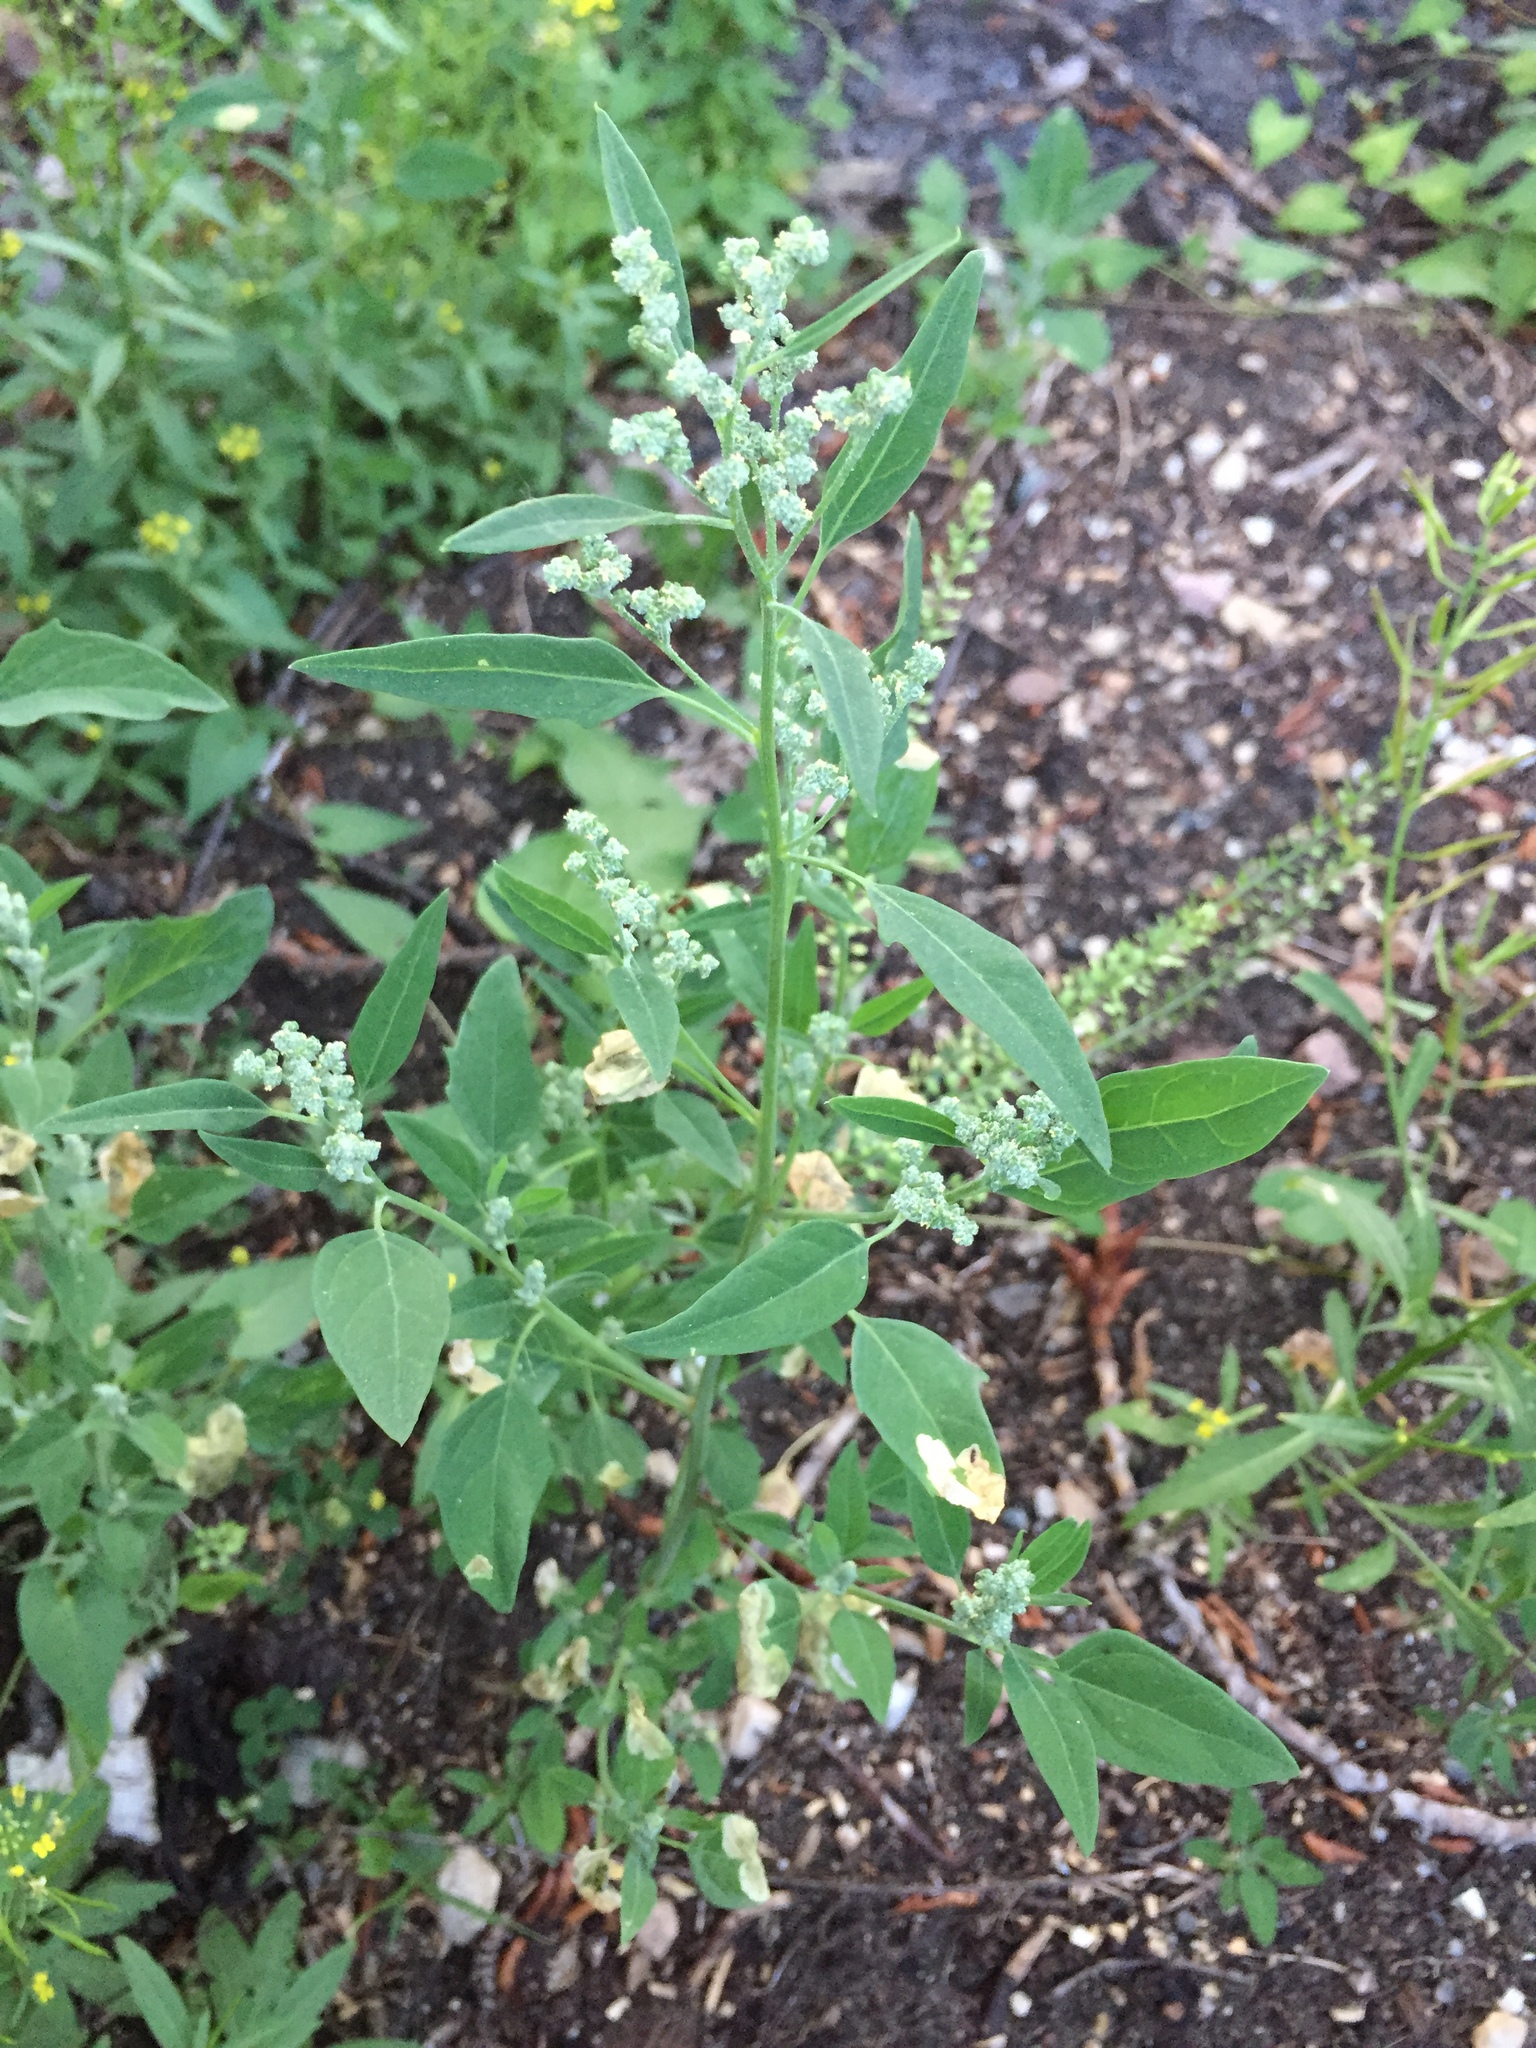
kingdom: Plantae
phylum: Tracheophyta
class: Magnoliopsida
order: Caryophyllales
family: Amaranthaceae
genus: Chenopodium
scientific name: Chenopodium album
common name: Fat-hen
